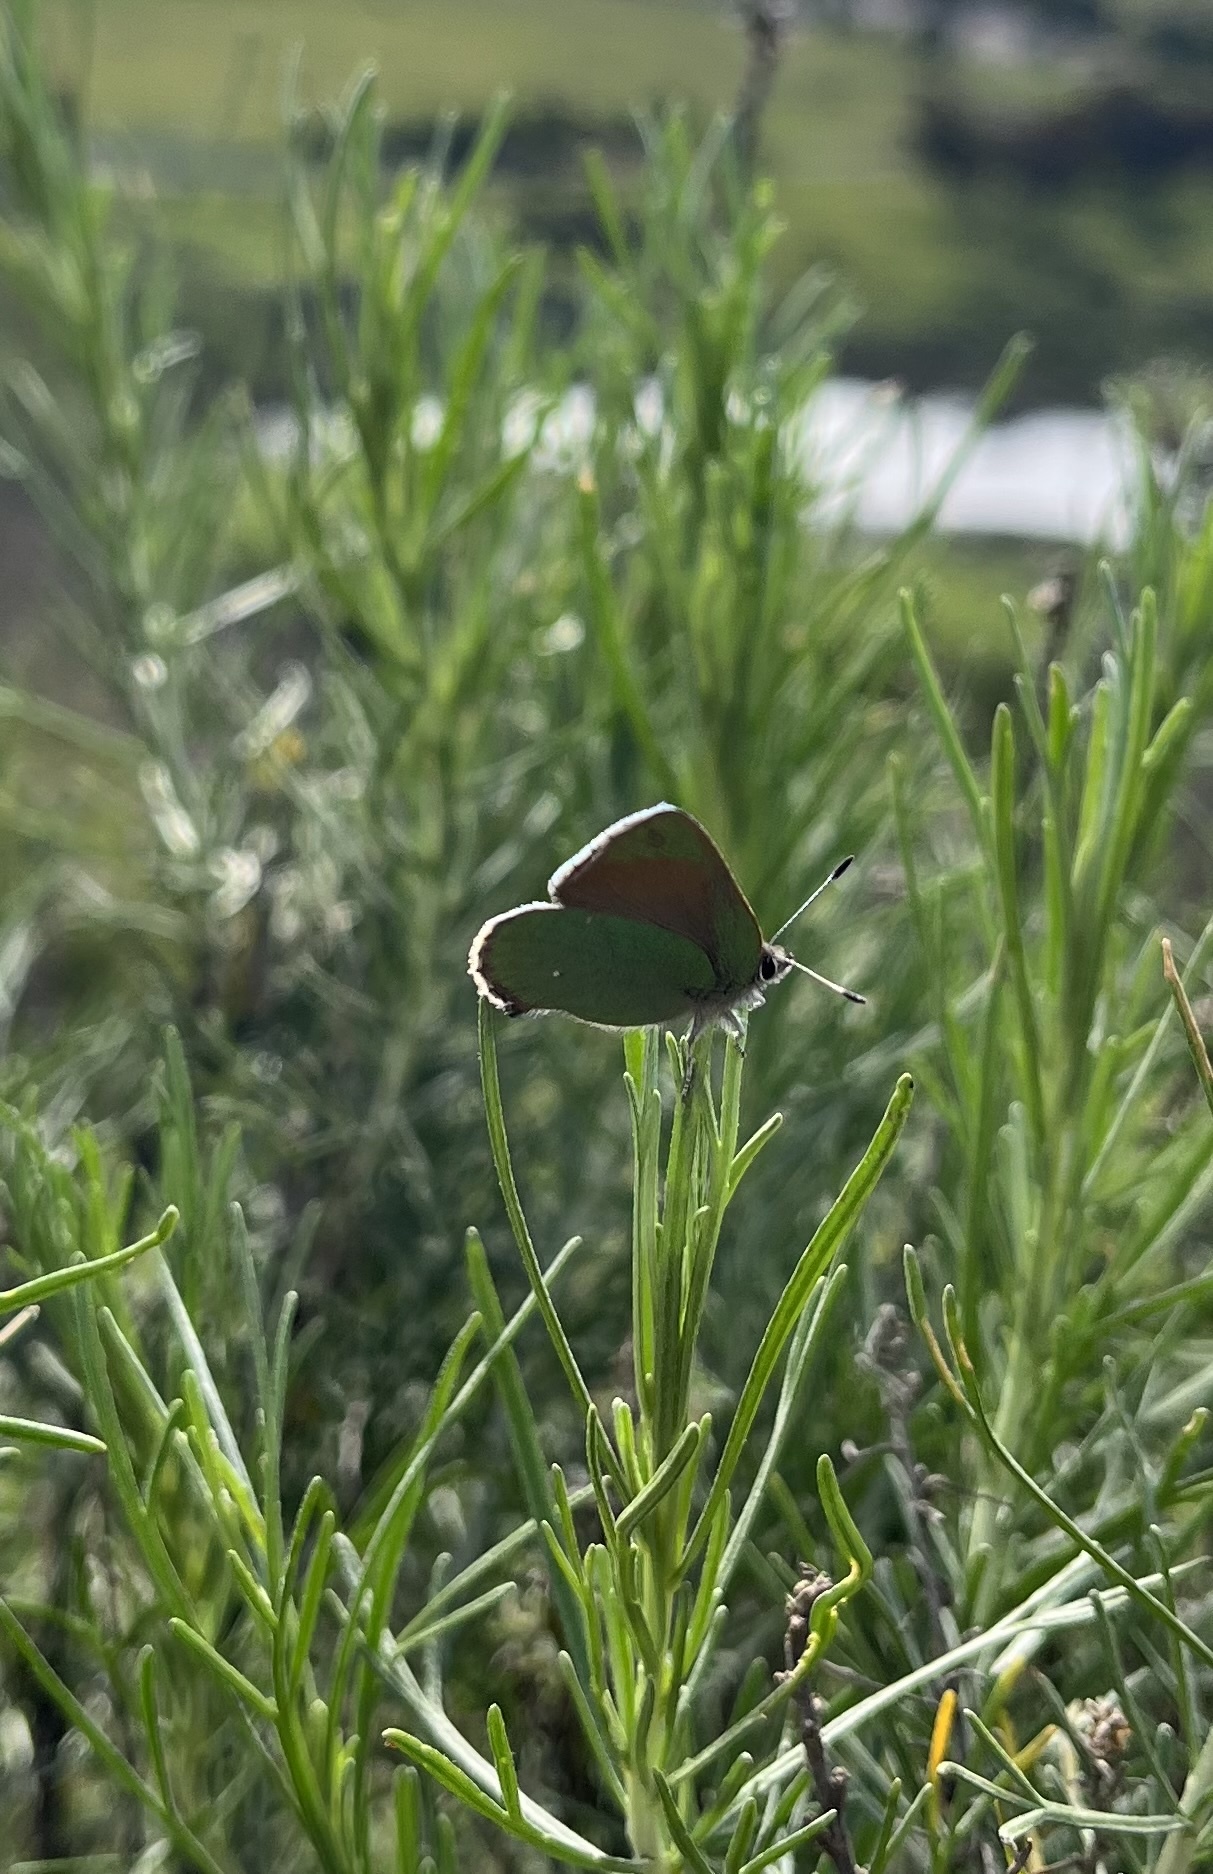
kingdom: Animalia
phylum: Arthropoda
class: Insecta
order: Lepidoptera
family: Lycaenidae
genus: Callophrys
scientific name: Callophrys dumetorum
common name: Bramble hairstreak
